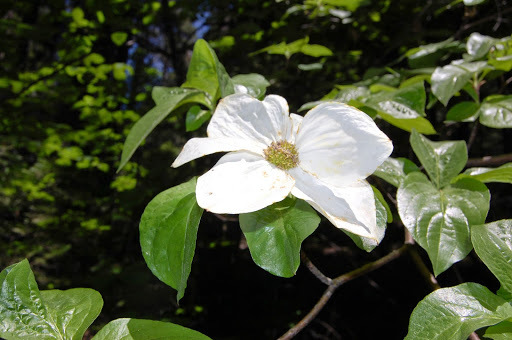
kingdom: Plantae
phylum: Tracheophyta
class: Magnoliopsida
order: Cornales
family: Cornaceae
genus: Cornus
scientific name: Cornus nuttallii
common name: Pacific dogwood
